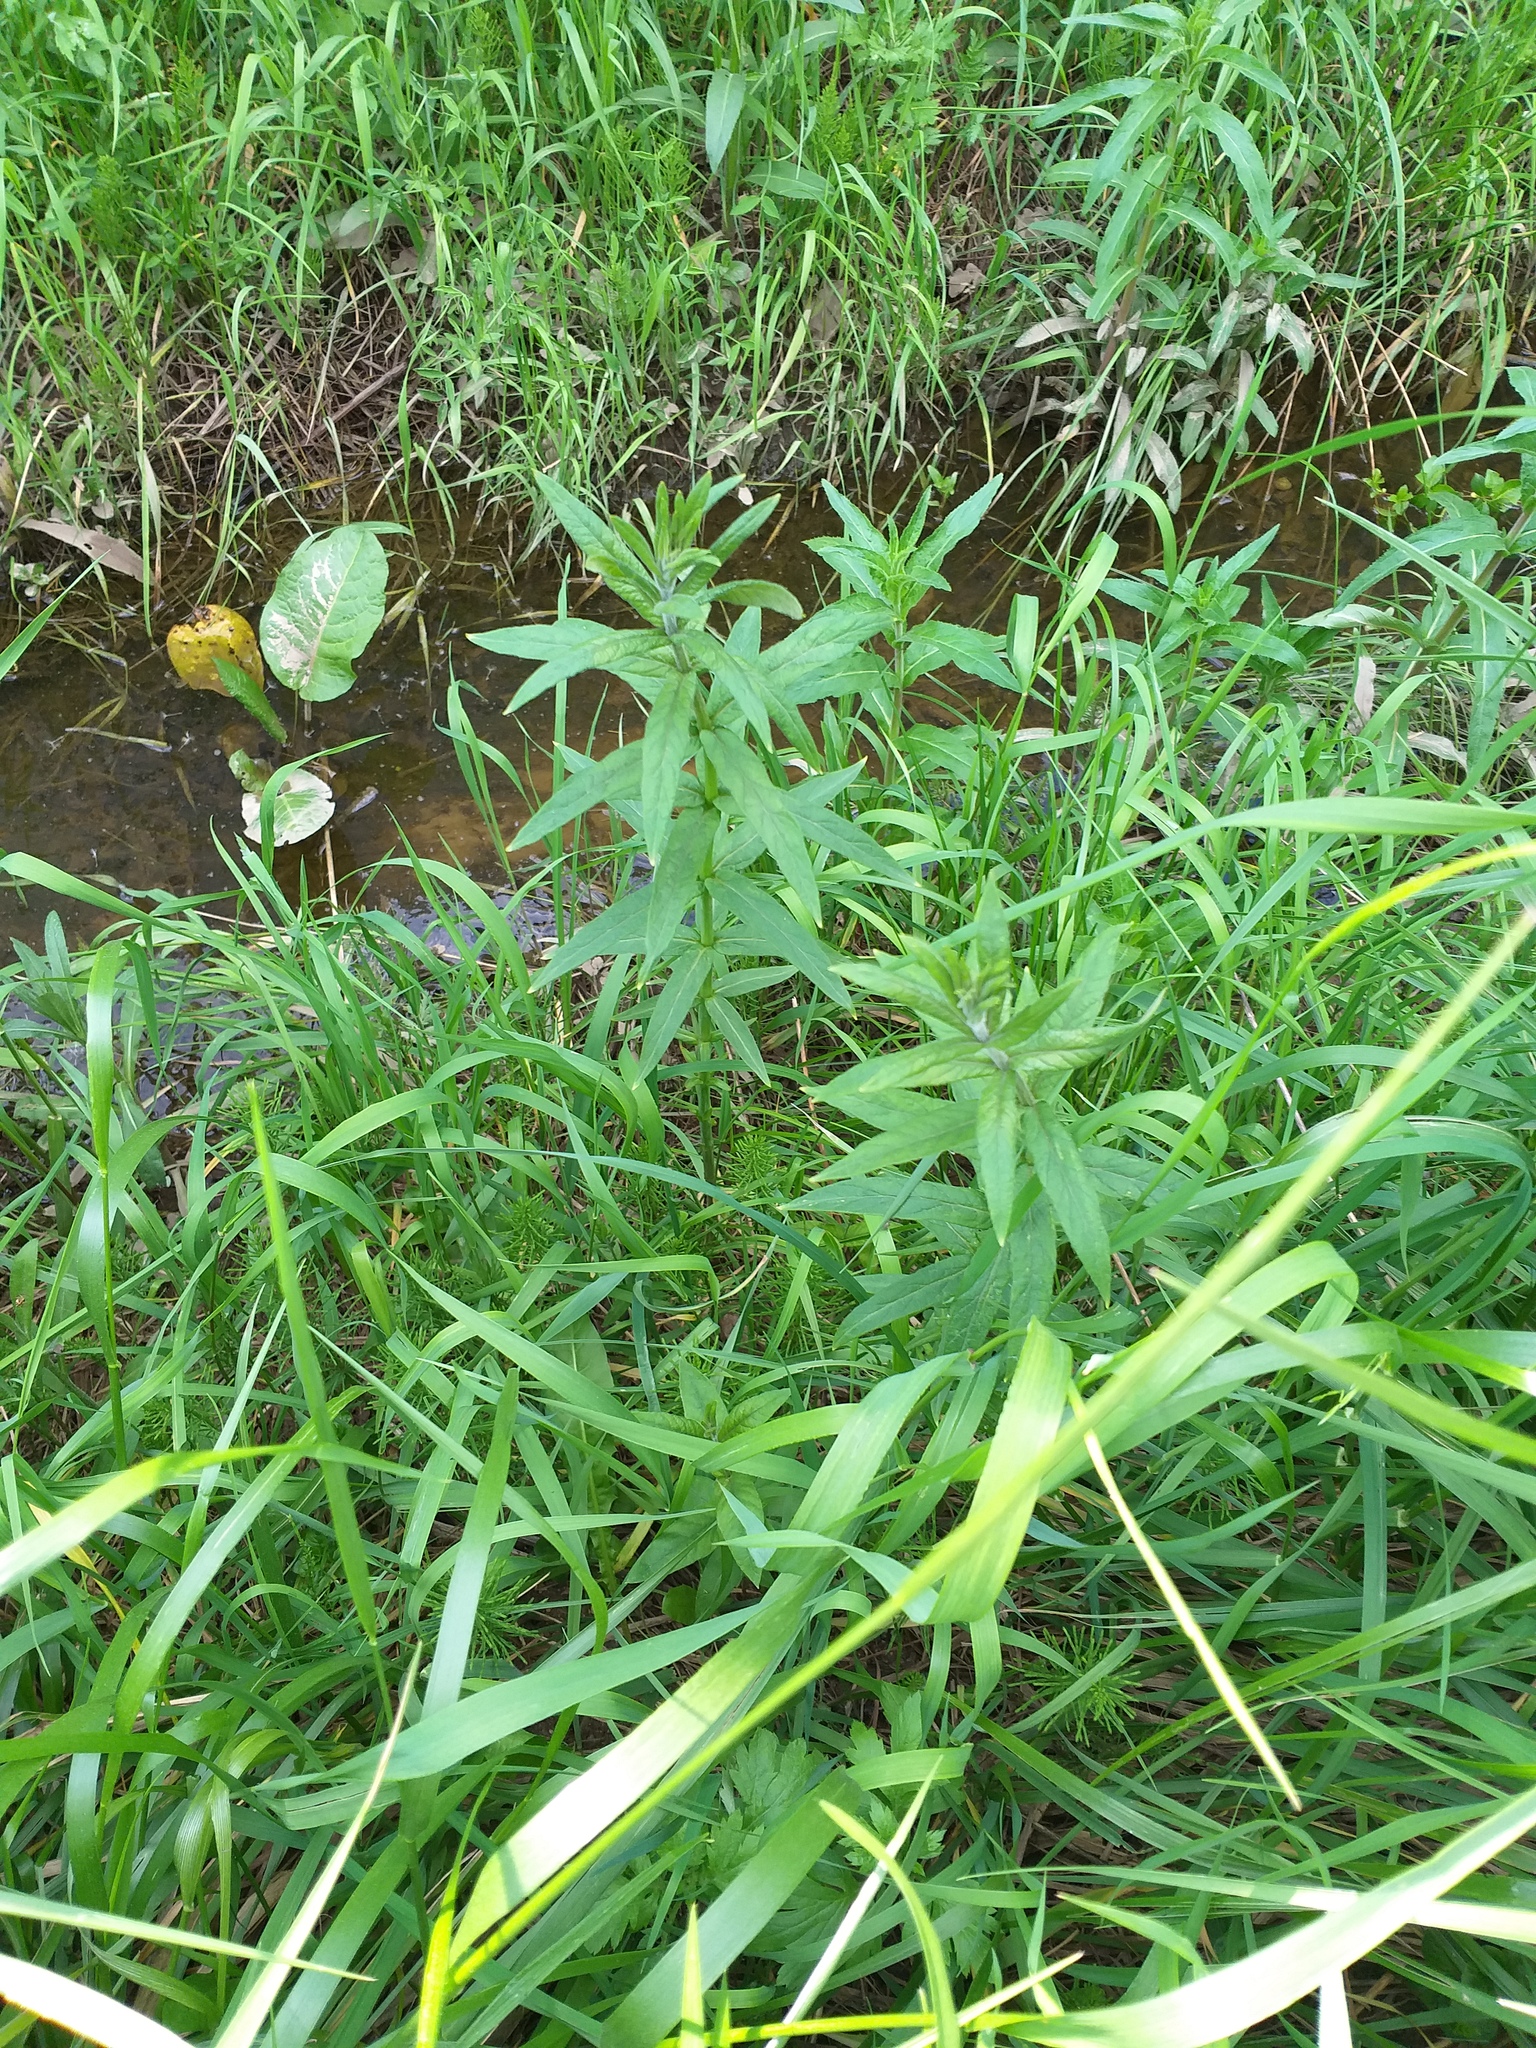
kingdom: Plantae
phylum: Tracheophyta
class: Magnoliopsida
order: Ericales
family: Primulaceae
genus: Lysimachia
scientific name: Lysimachia vulgaris
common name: Yellow loosestrife
